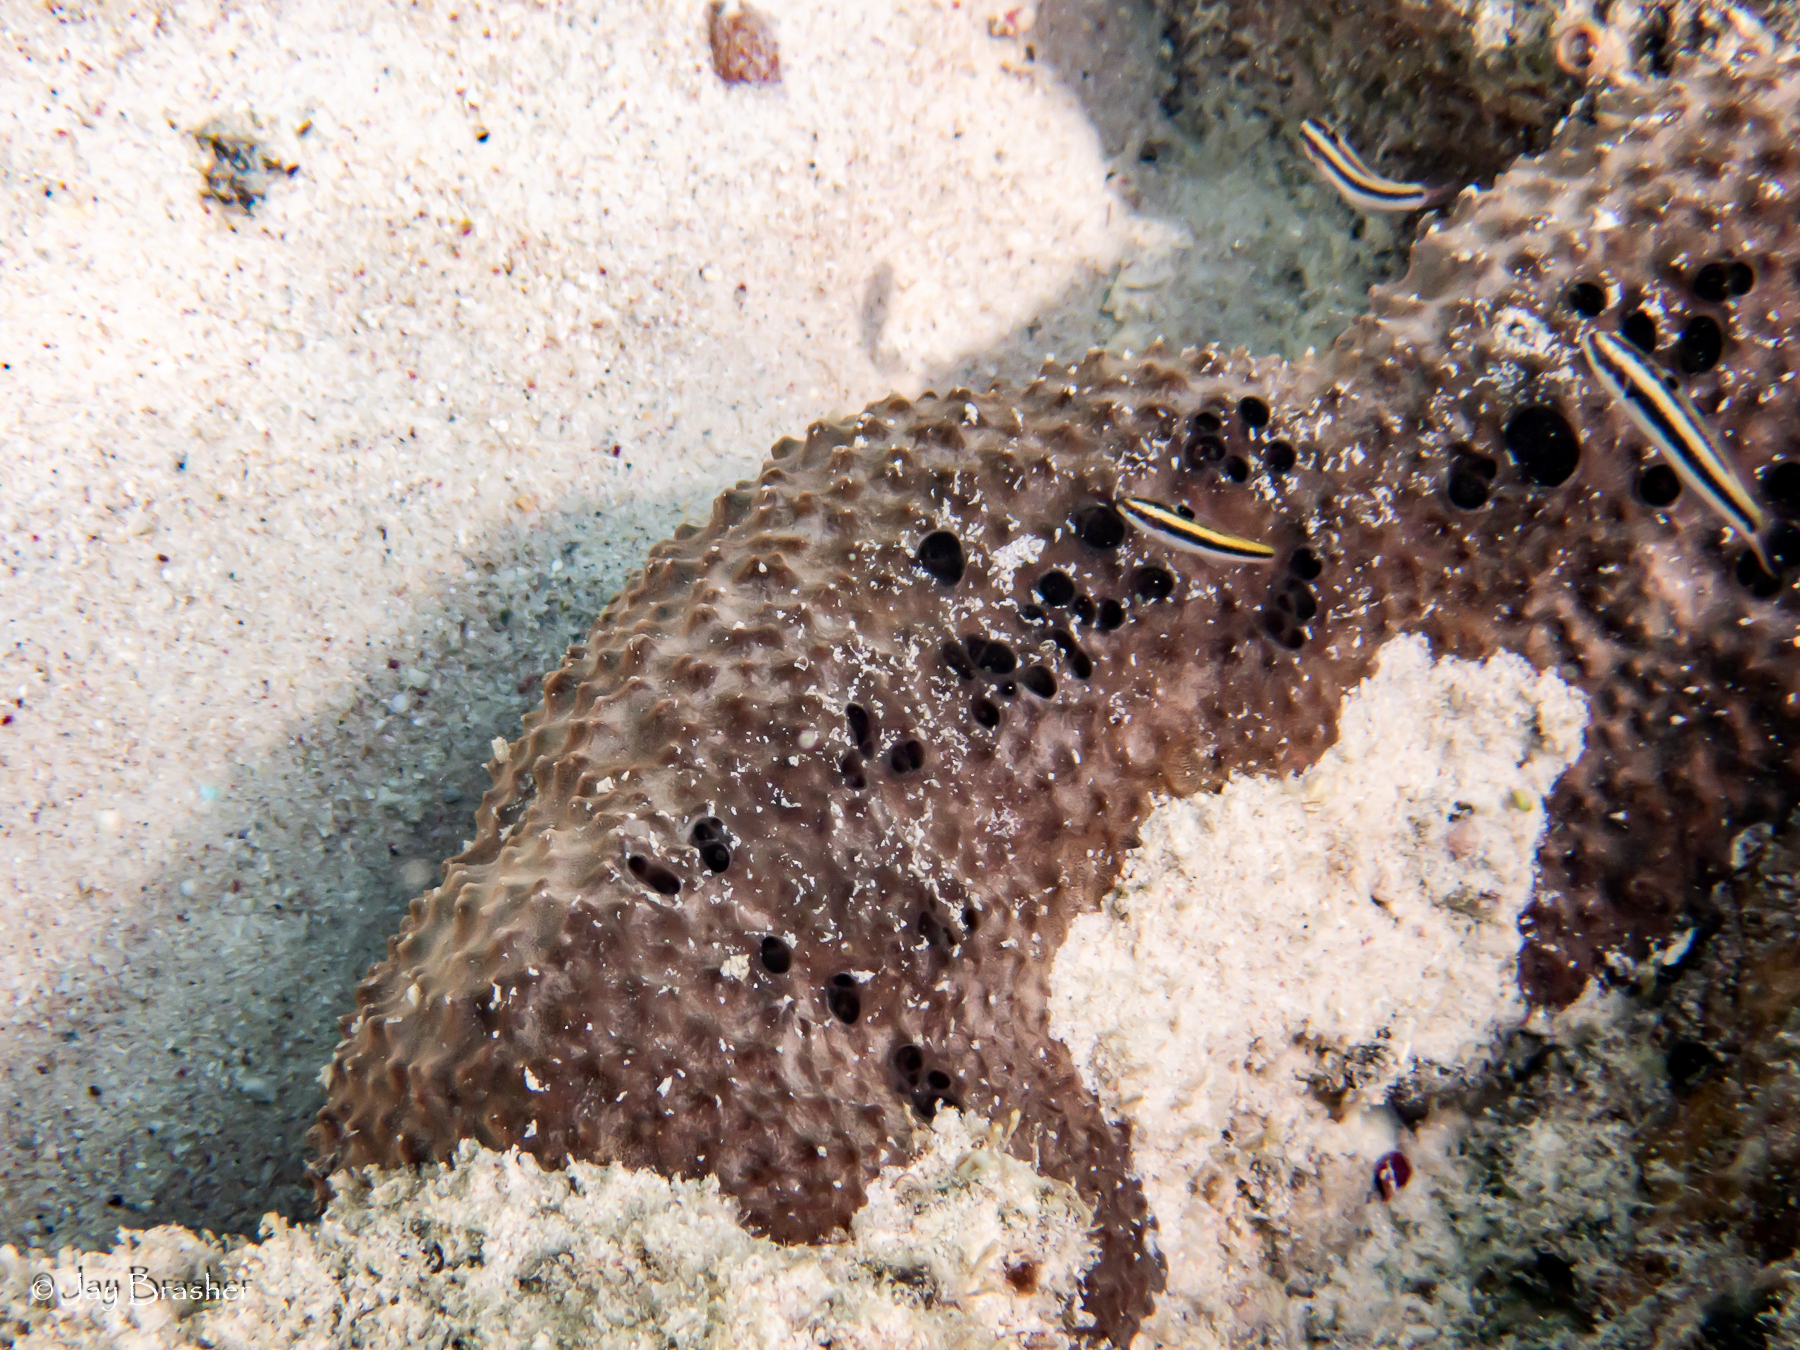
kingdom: Animalia
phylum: Chordata
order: Perciformes
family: Labridae
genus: Thalassoma
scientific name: Thalassoma bifasciatum
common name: Bluehead wrasse
